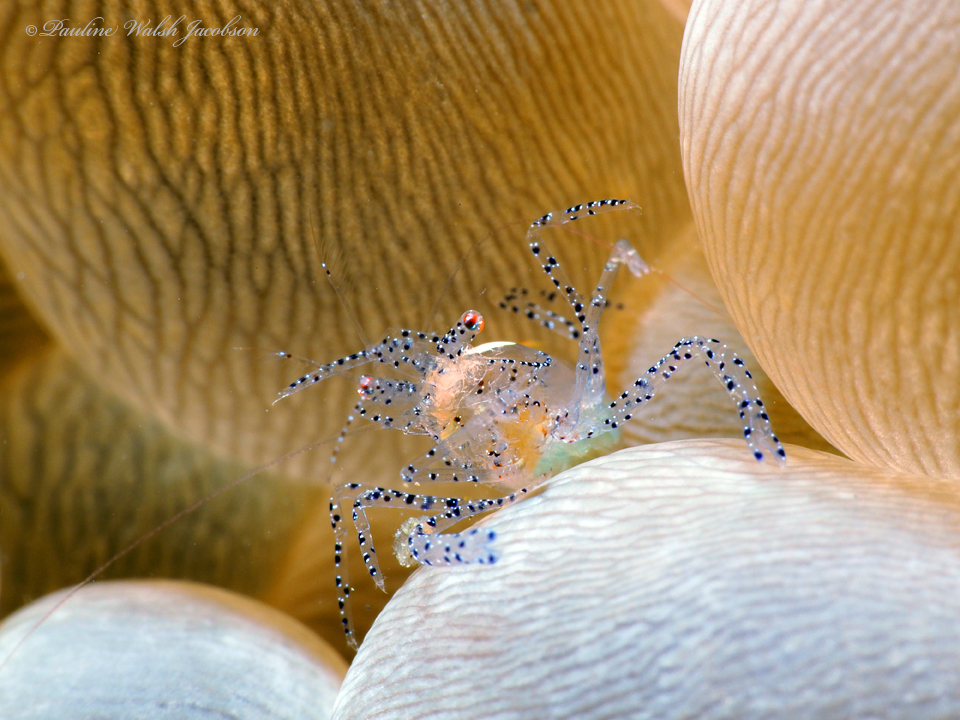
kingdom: Animalia
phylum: Arthropoda
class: Malacostraca
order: Decapoda
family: Palaemonidae
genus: Hamopontonia
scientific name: Hamopontonia physogyra
